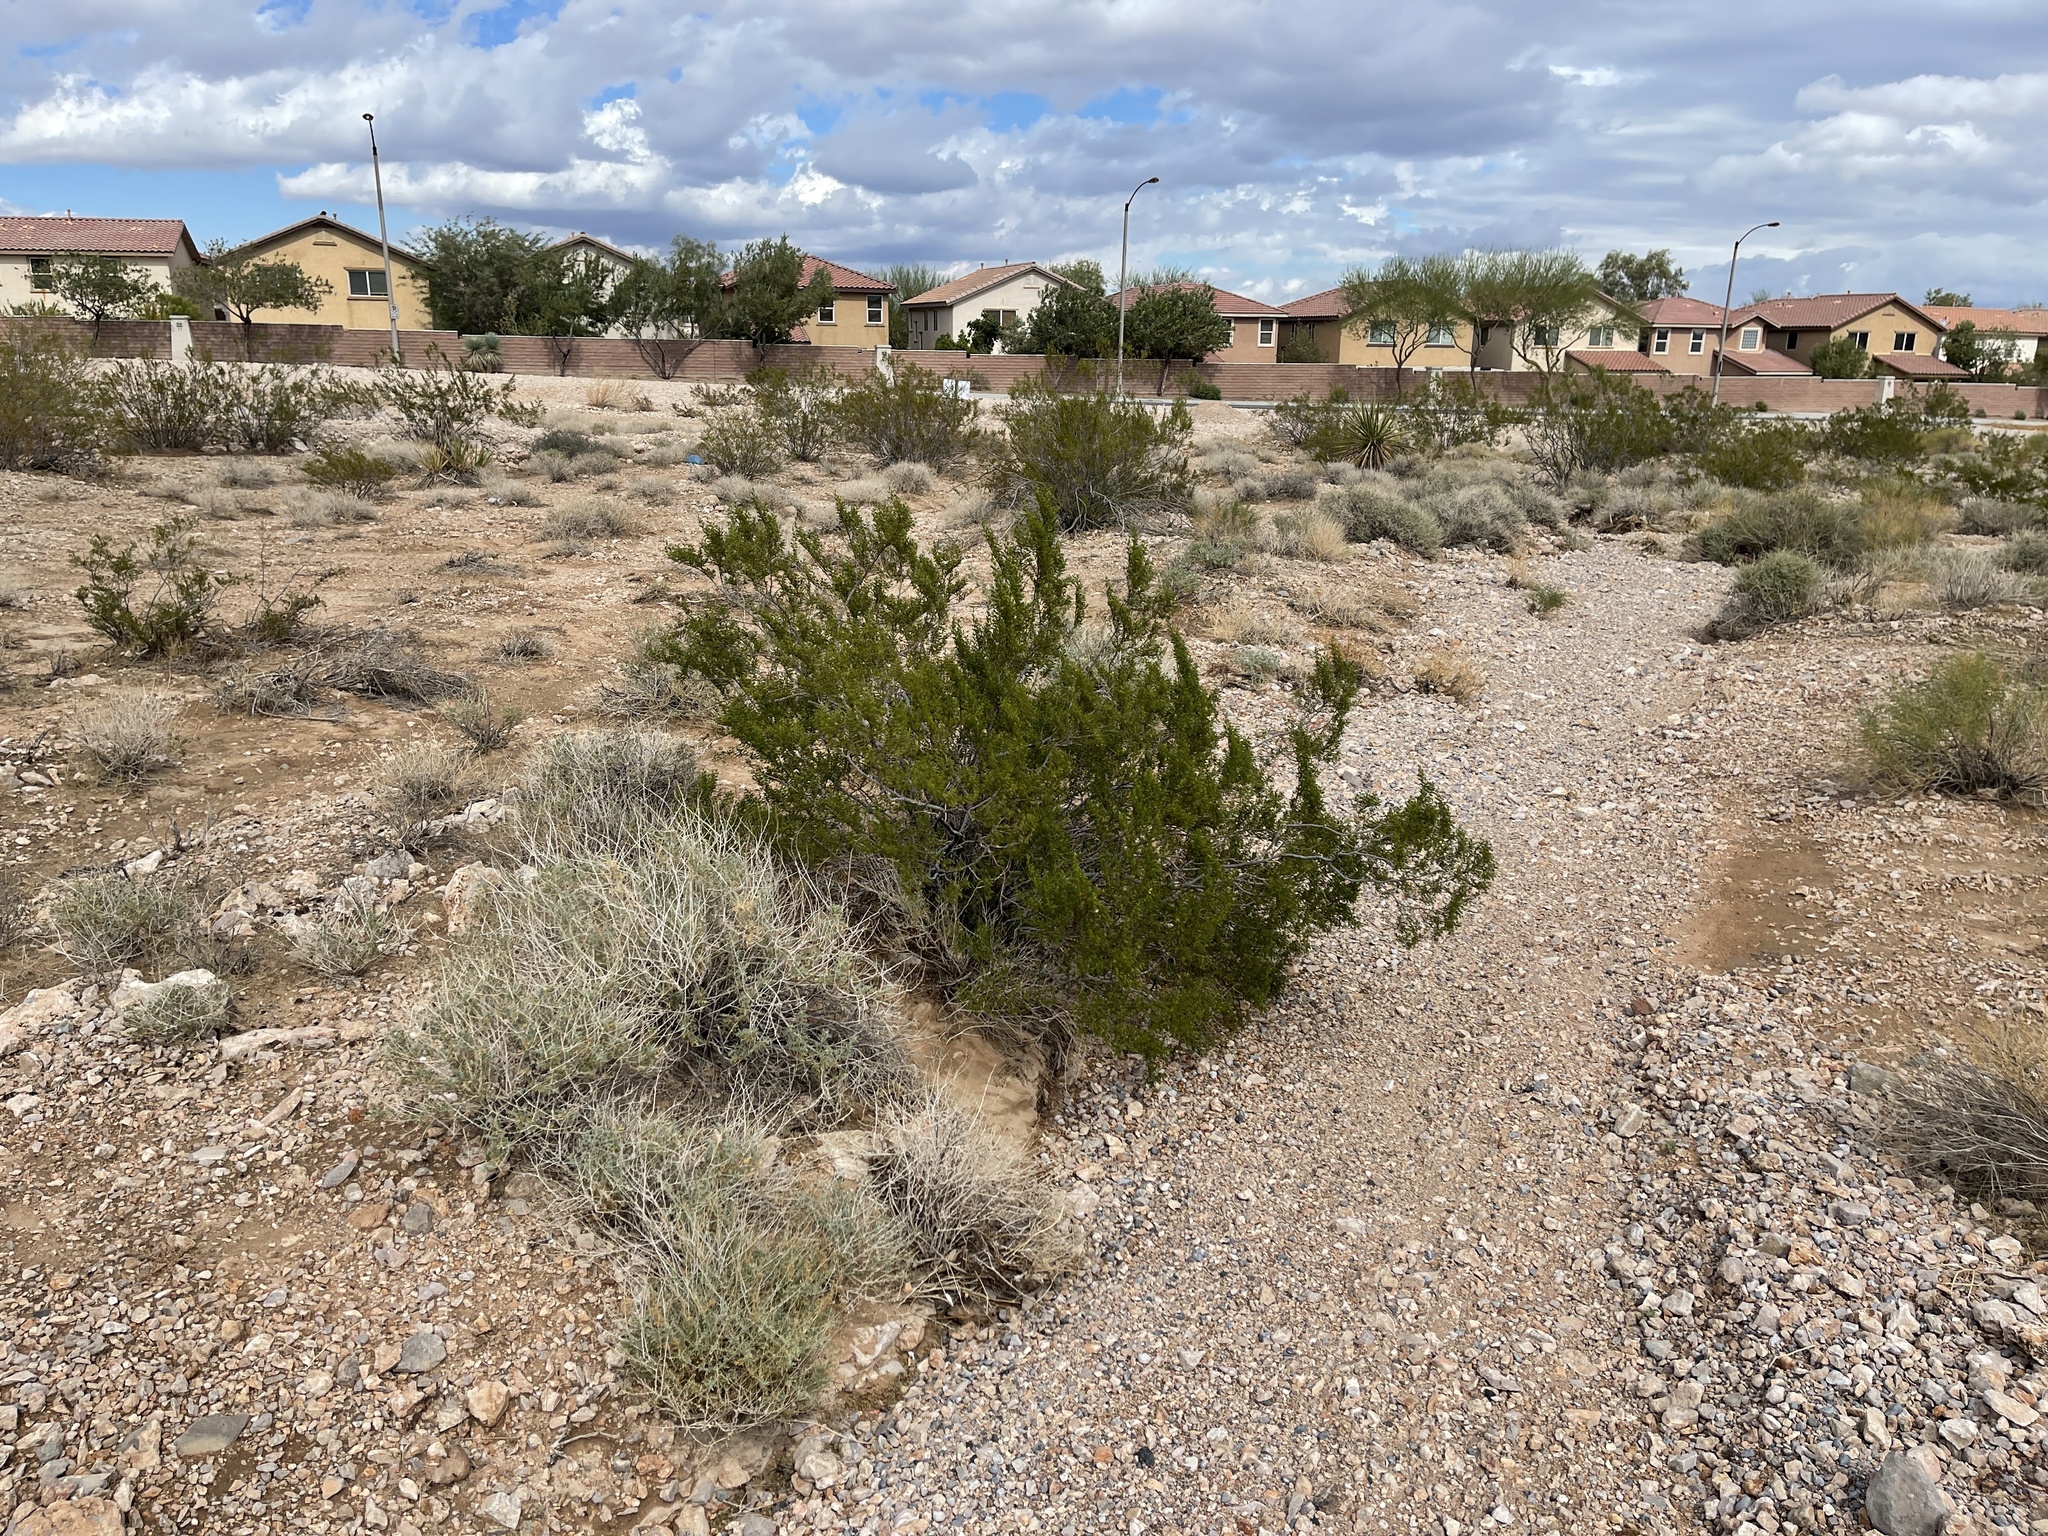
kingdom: Plantae
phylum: Tracheophyta
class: Magnoliopsida
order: Zygophyllales
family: Zygophyllaceae
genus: Larrea
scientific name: Larrea tridentata
